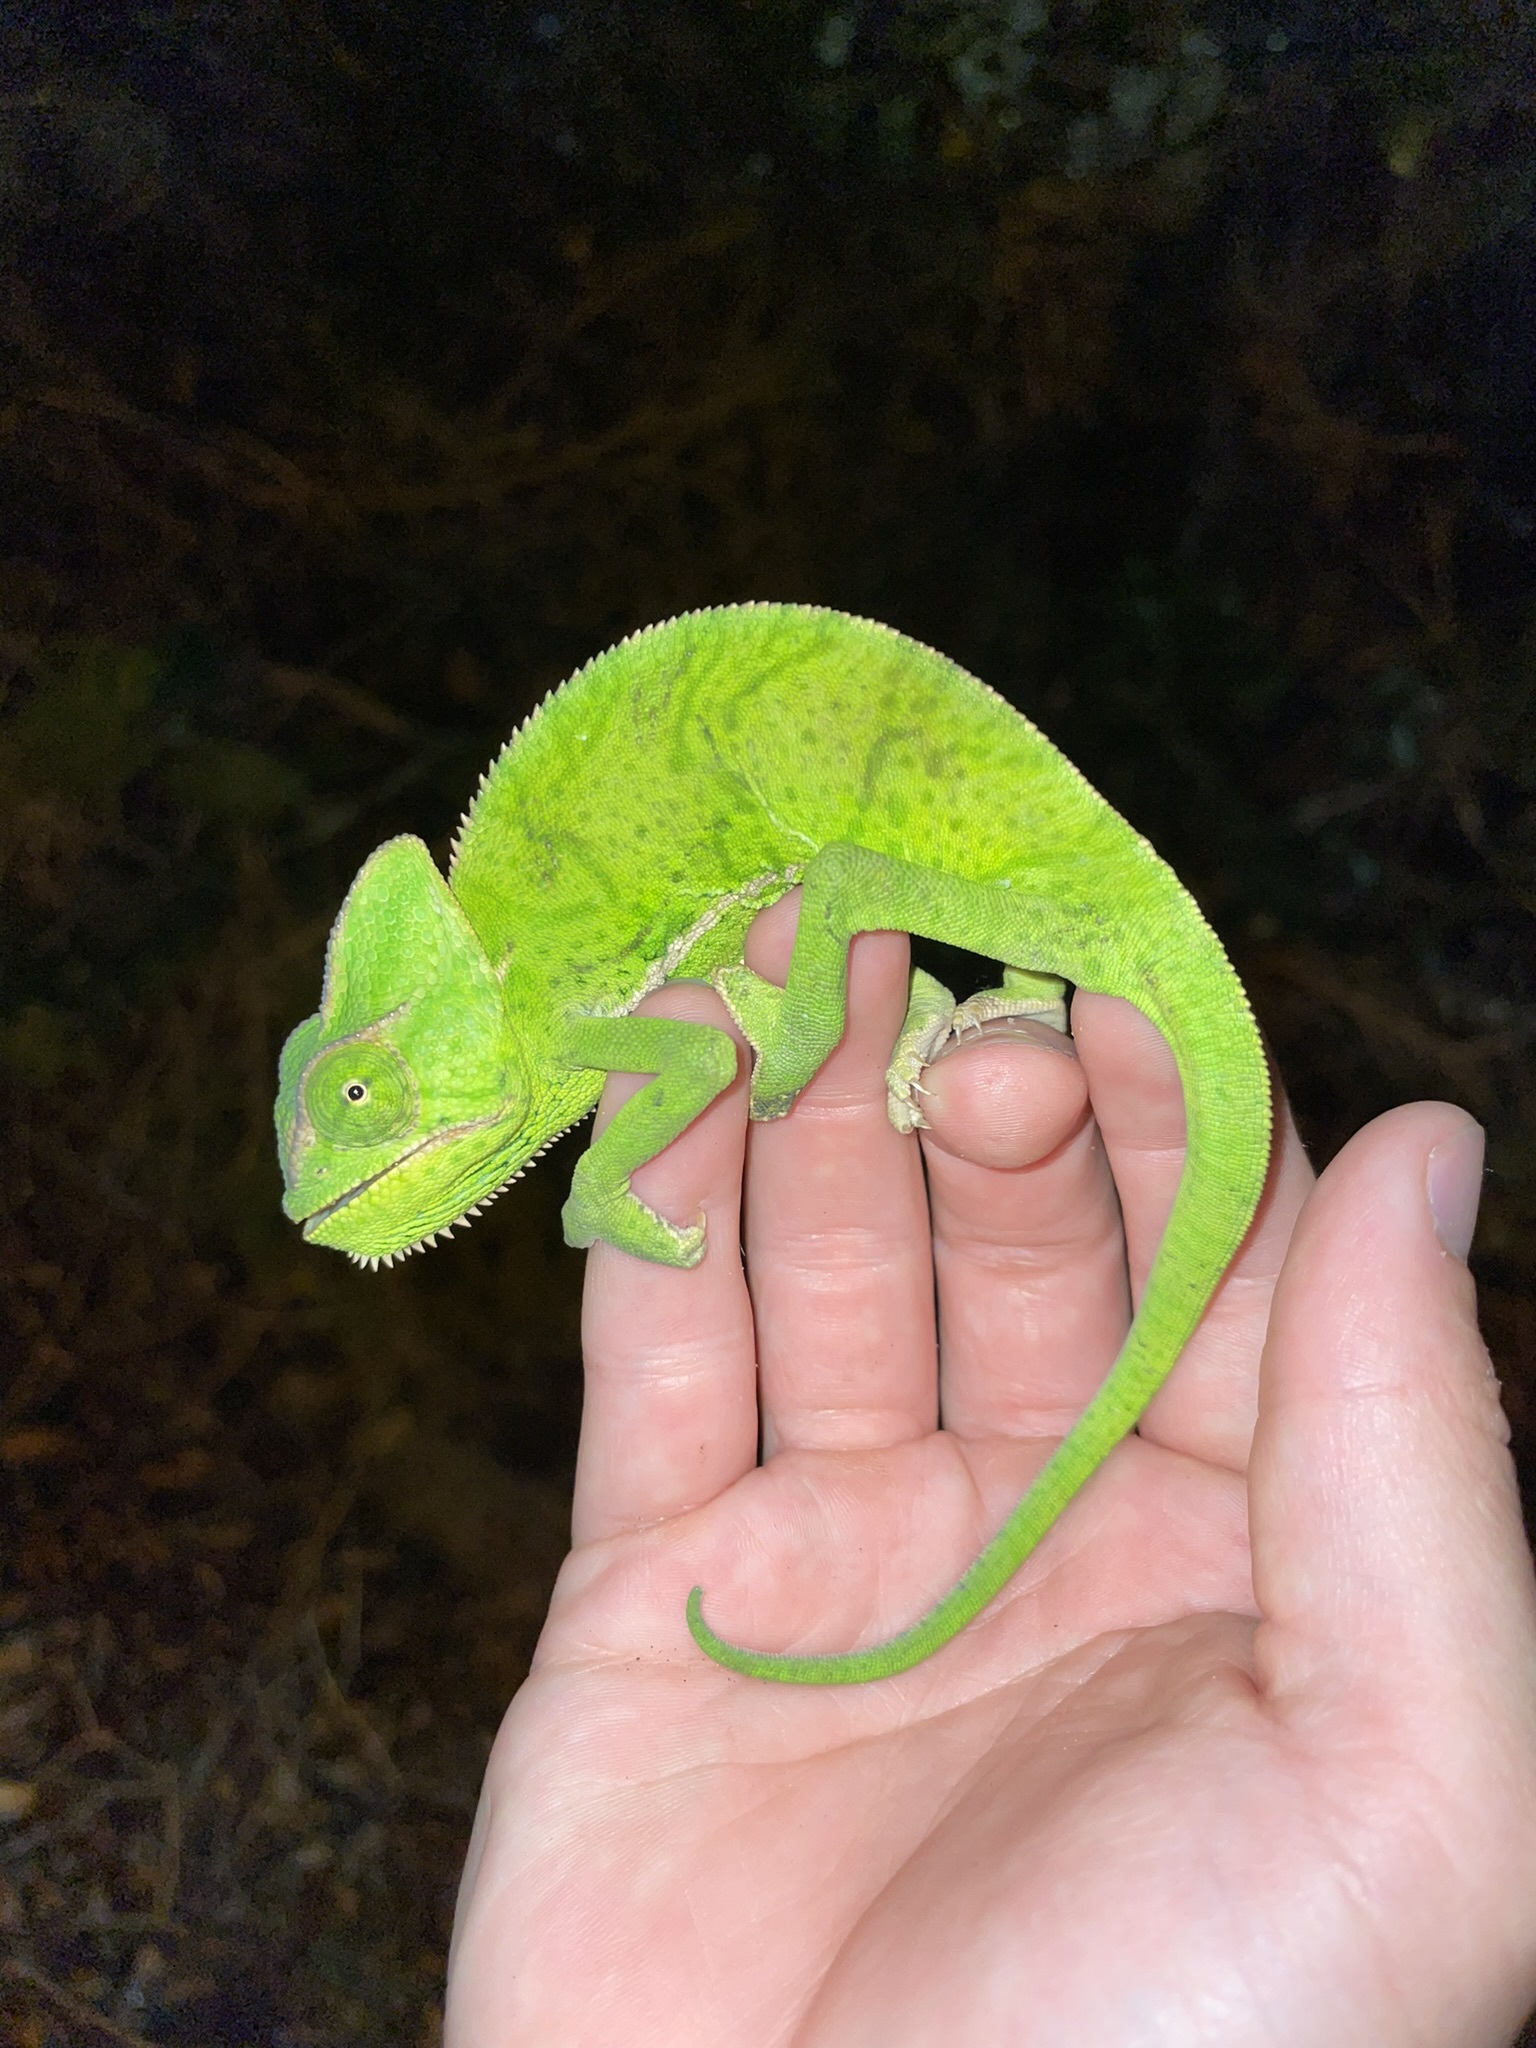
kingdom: Animalia
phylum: Chordata
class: Squamata
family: Chamaeleonidae
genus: Chamaeleo
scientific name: Chamaeleo calyptratus
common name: Veiled chameleon
